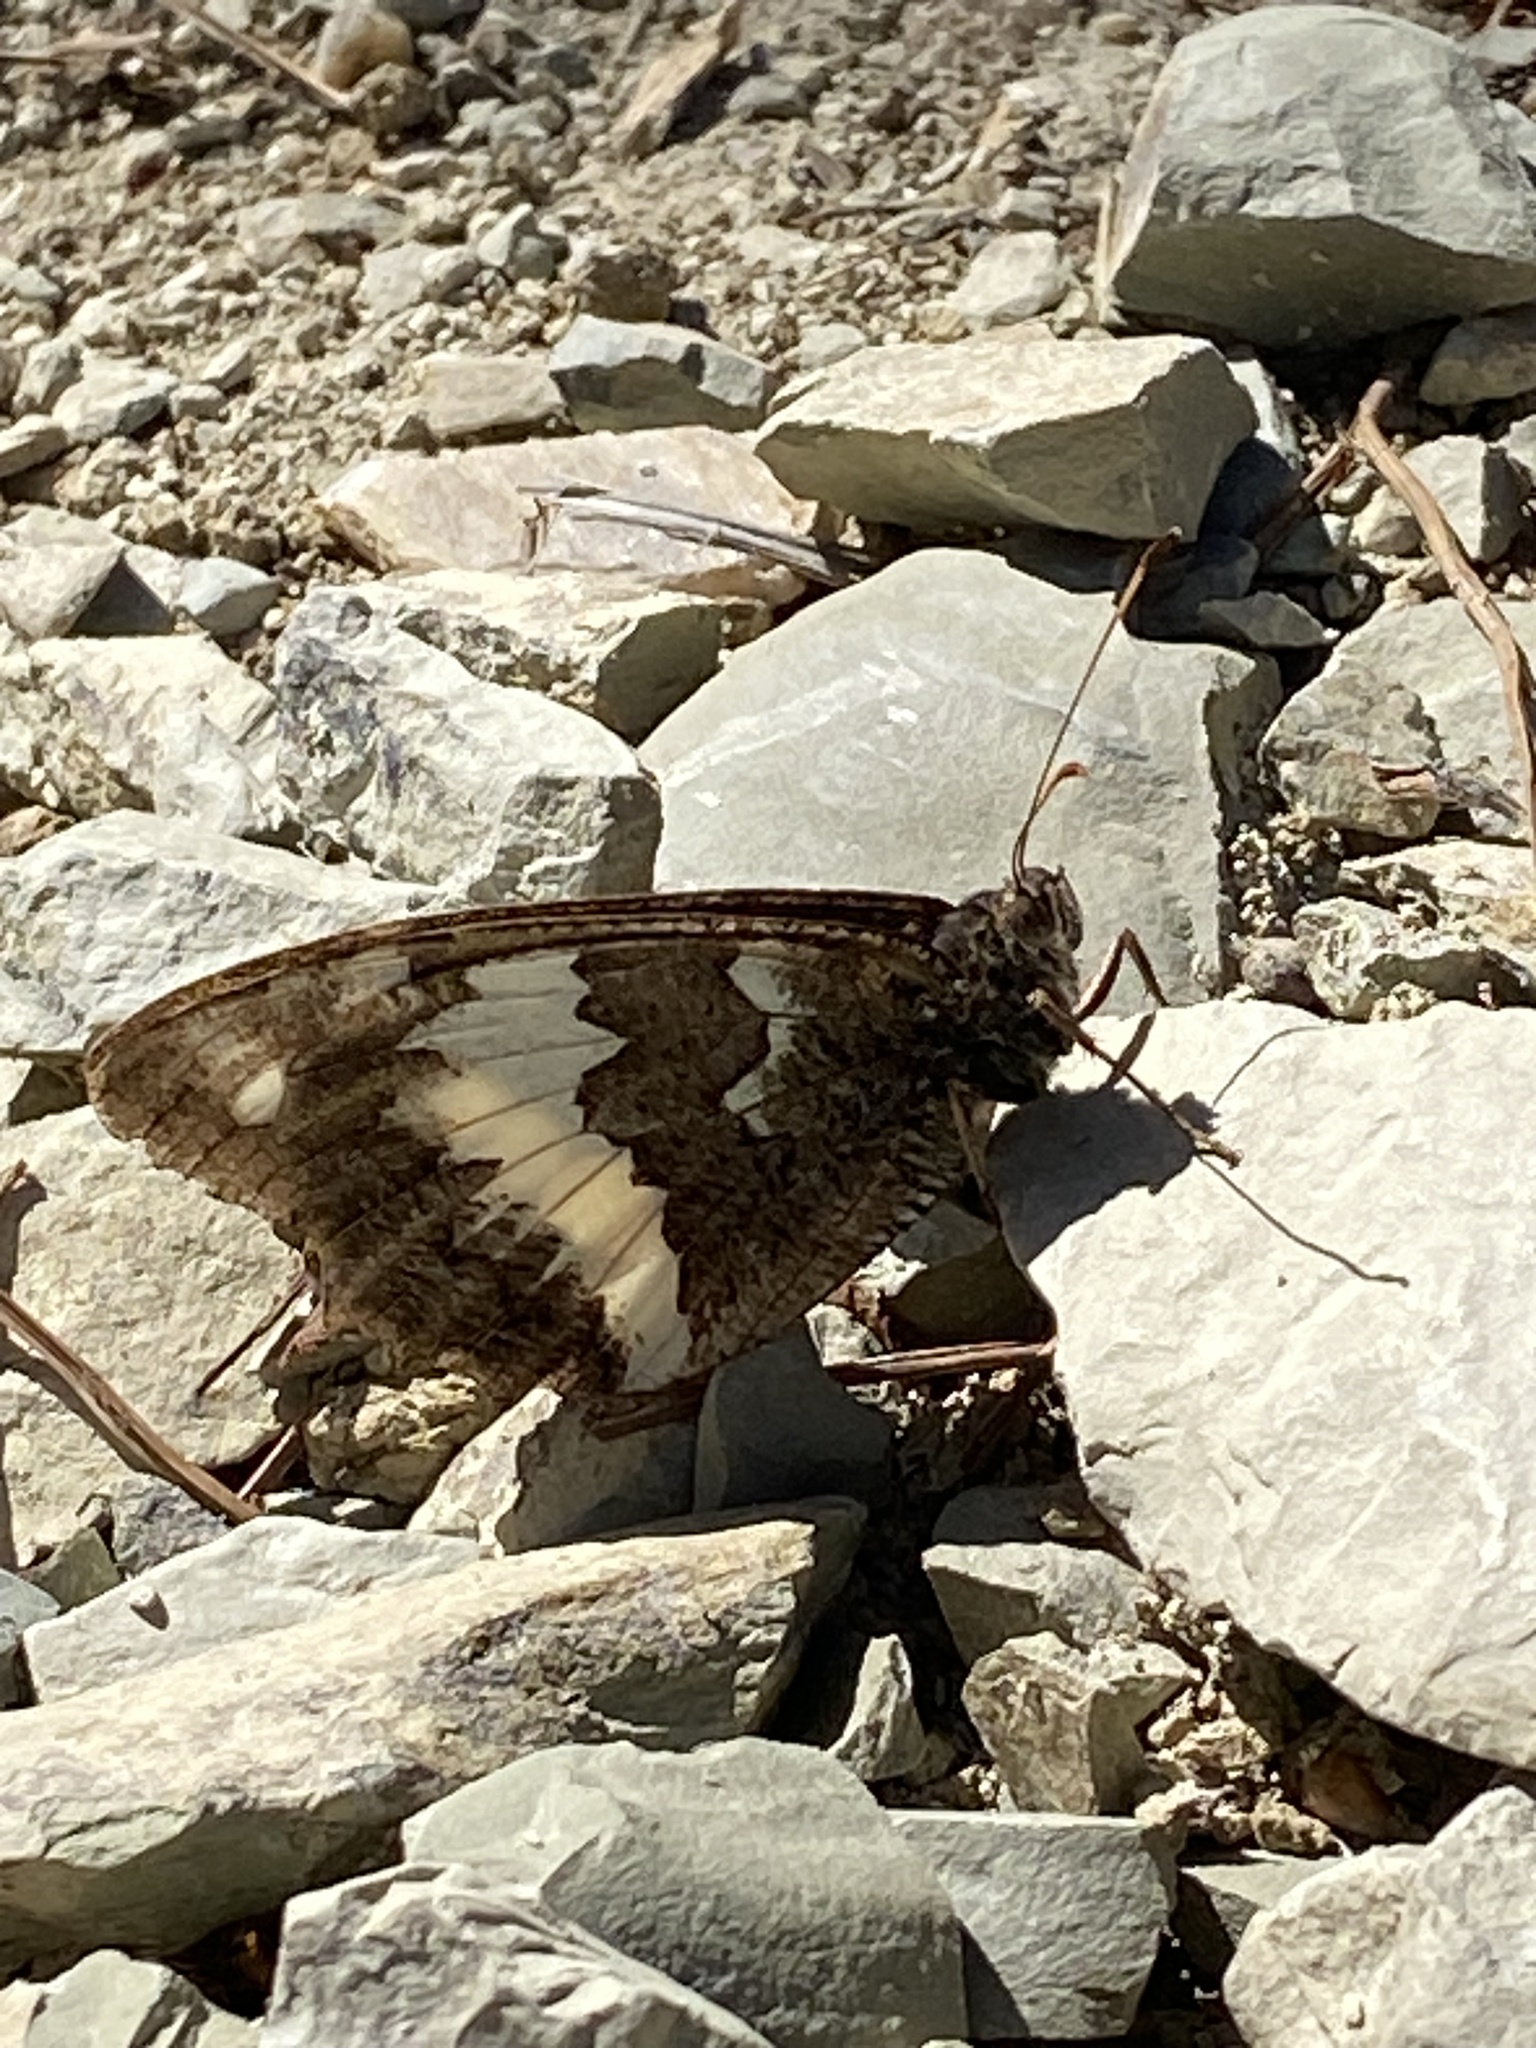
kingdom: Animalia
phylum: Arthropoda
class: Insecta
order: Lepidoptera
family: Lycaenidae
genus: Loweia
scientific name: Loweia tityrus
